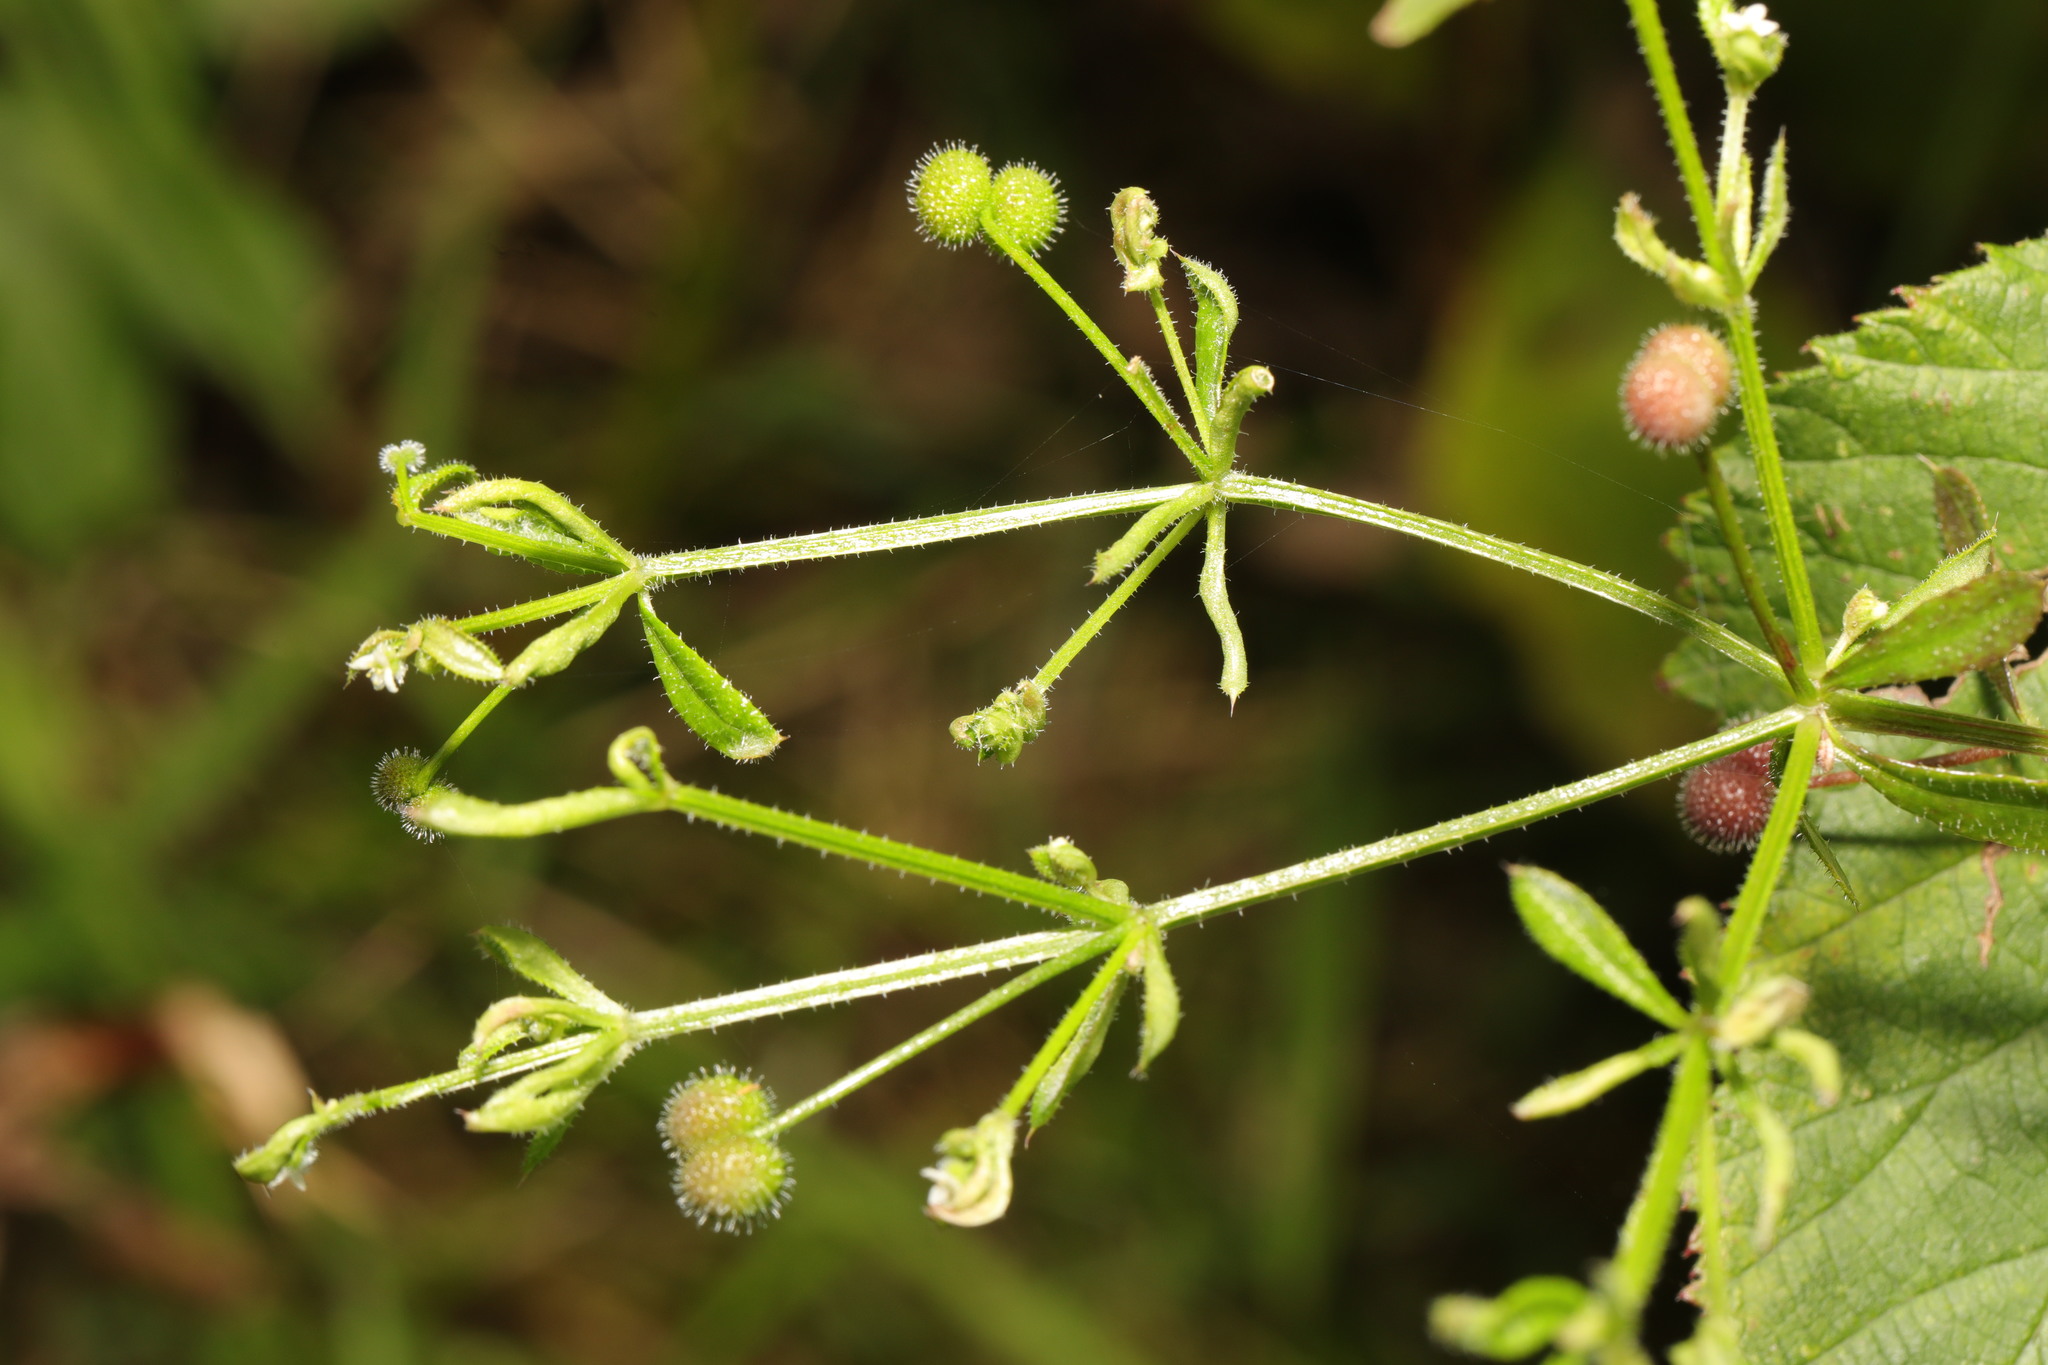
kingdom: Plantae
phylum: Tracheophyta
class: Magnoliopsida
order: Gentianales
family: Rubiaceae
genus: Galium
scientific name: Galium aparine
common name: Cleavers
